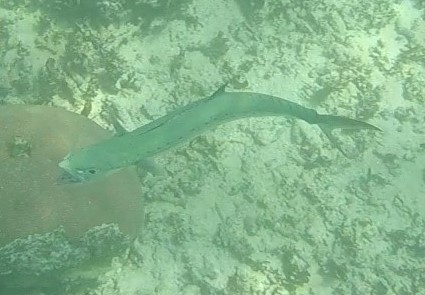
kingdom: Animalia
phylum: Chordata
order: Perciformes
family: Scombridae
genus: Scomberomorus
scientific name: Scomberomorus regalis
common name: Cero
